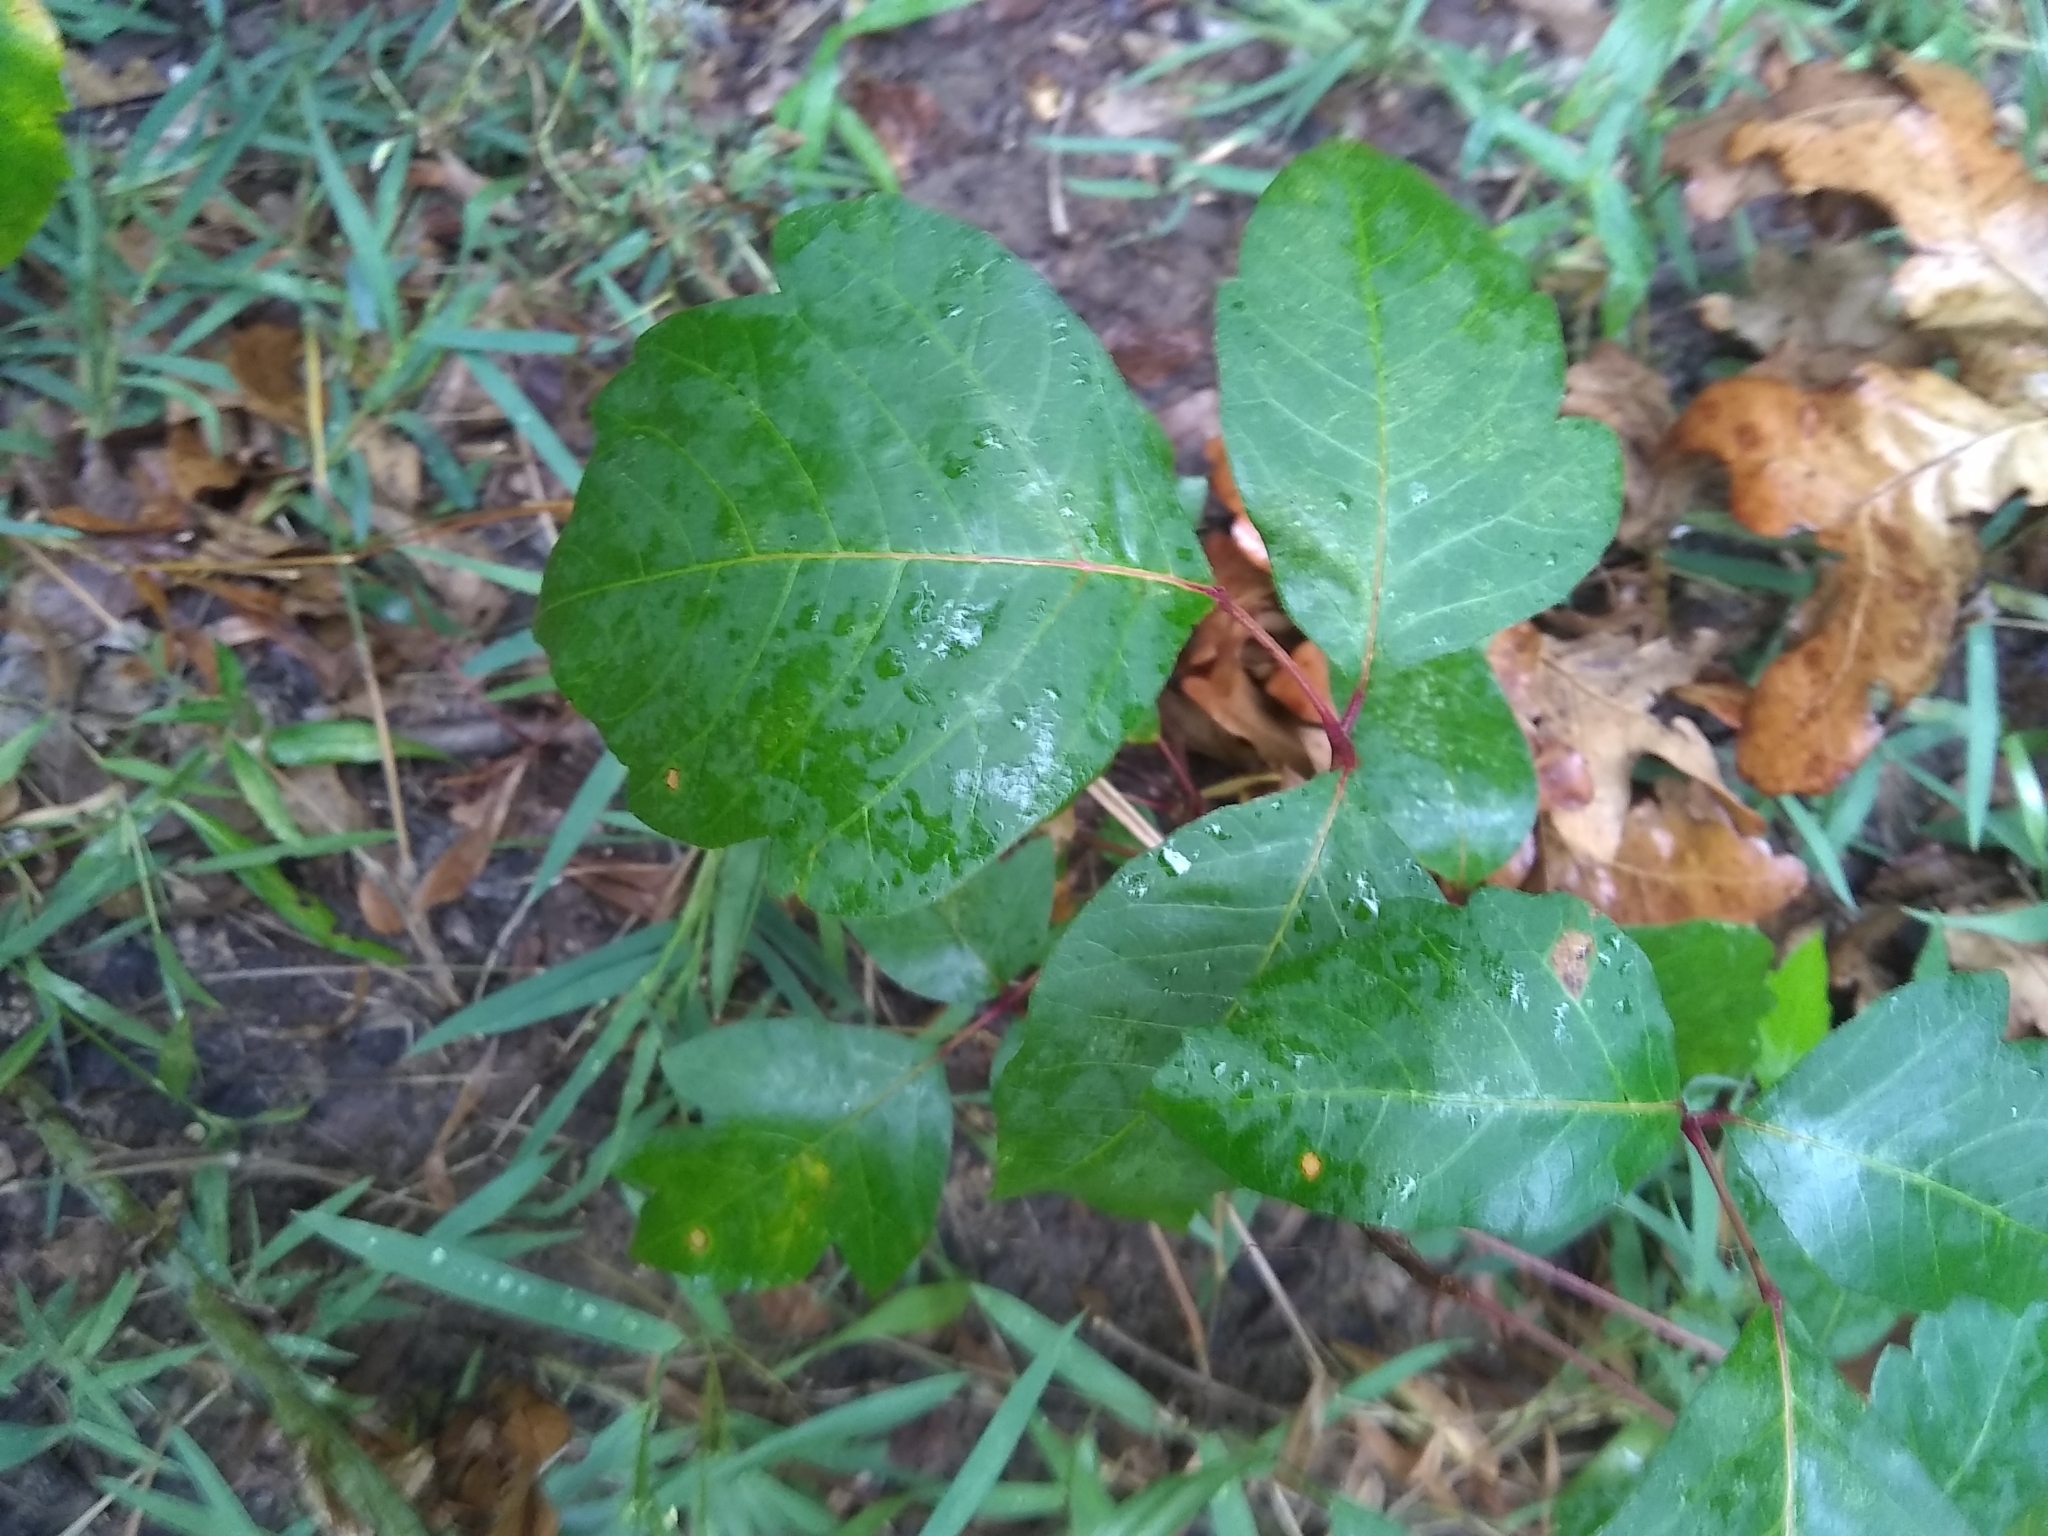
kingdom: Plantae
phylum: Tracheophyta
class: Magnoliopsida
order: Sapindales
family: Anacardiaceae
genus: Toxicodendron
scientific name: Toxicodendron radicans
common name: Poison ivy
